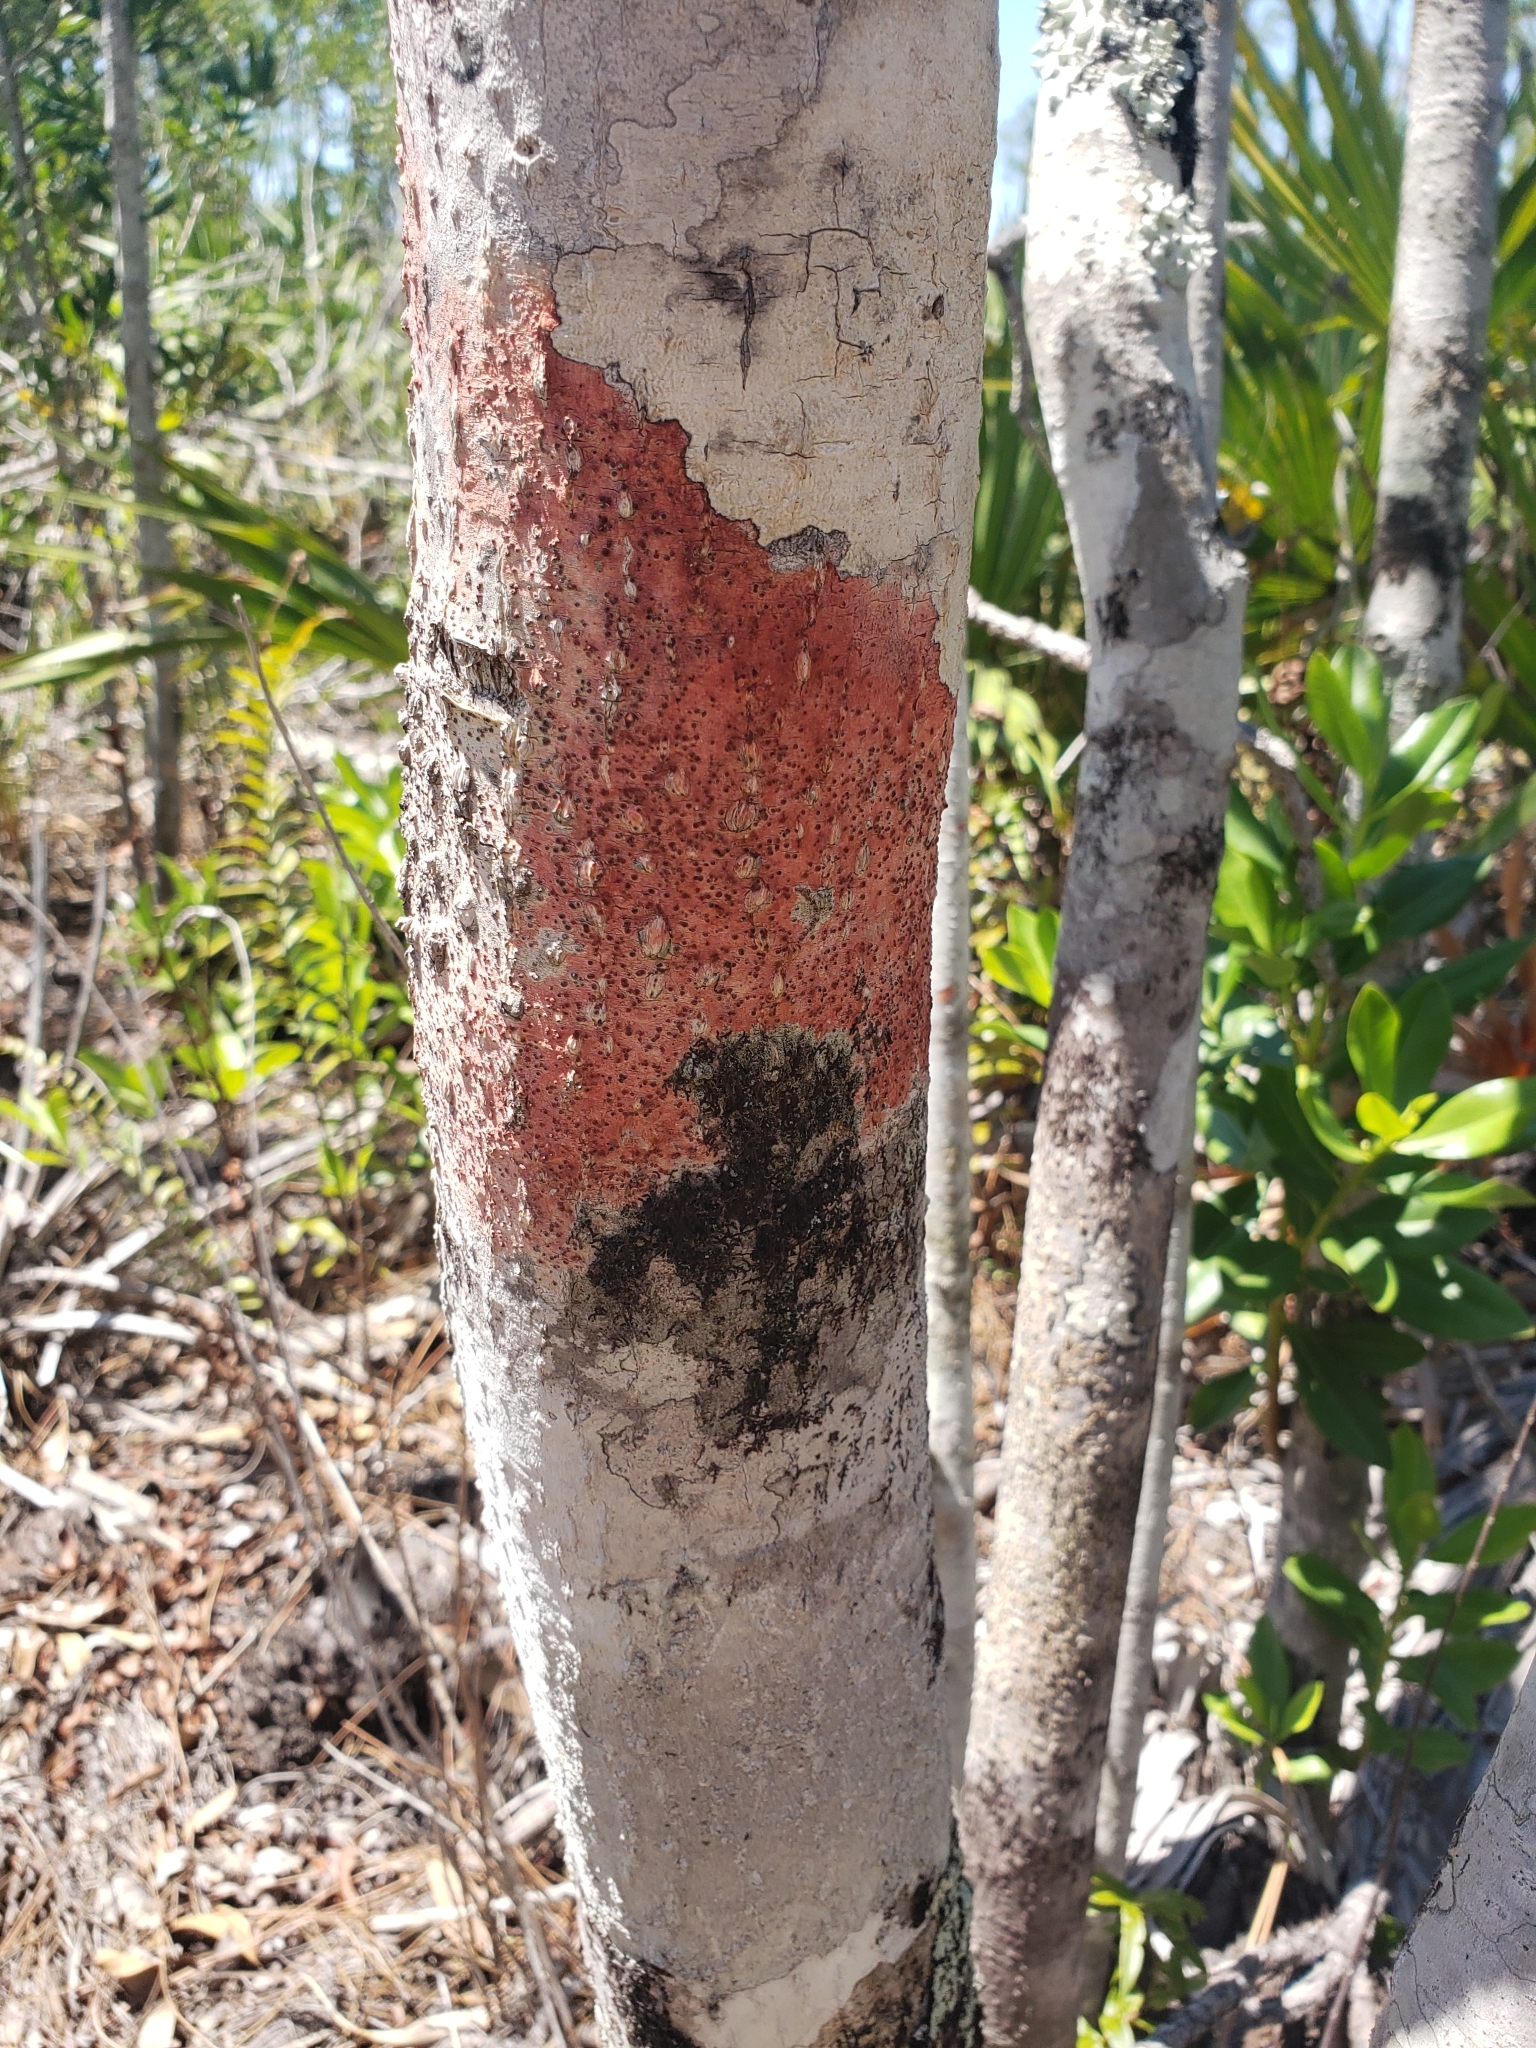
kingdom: Fungi
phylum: Ascomycota
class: Eurotiomycetes
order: Pyrenulales
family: Pyrenulaceae
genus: Pyrenula
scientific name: Pyrenula
